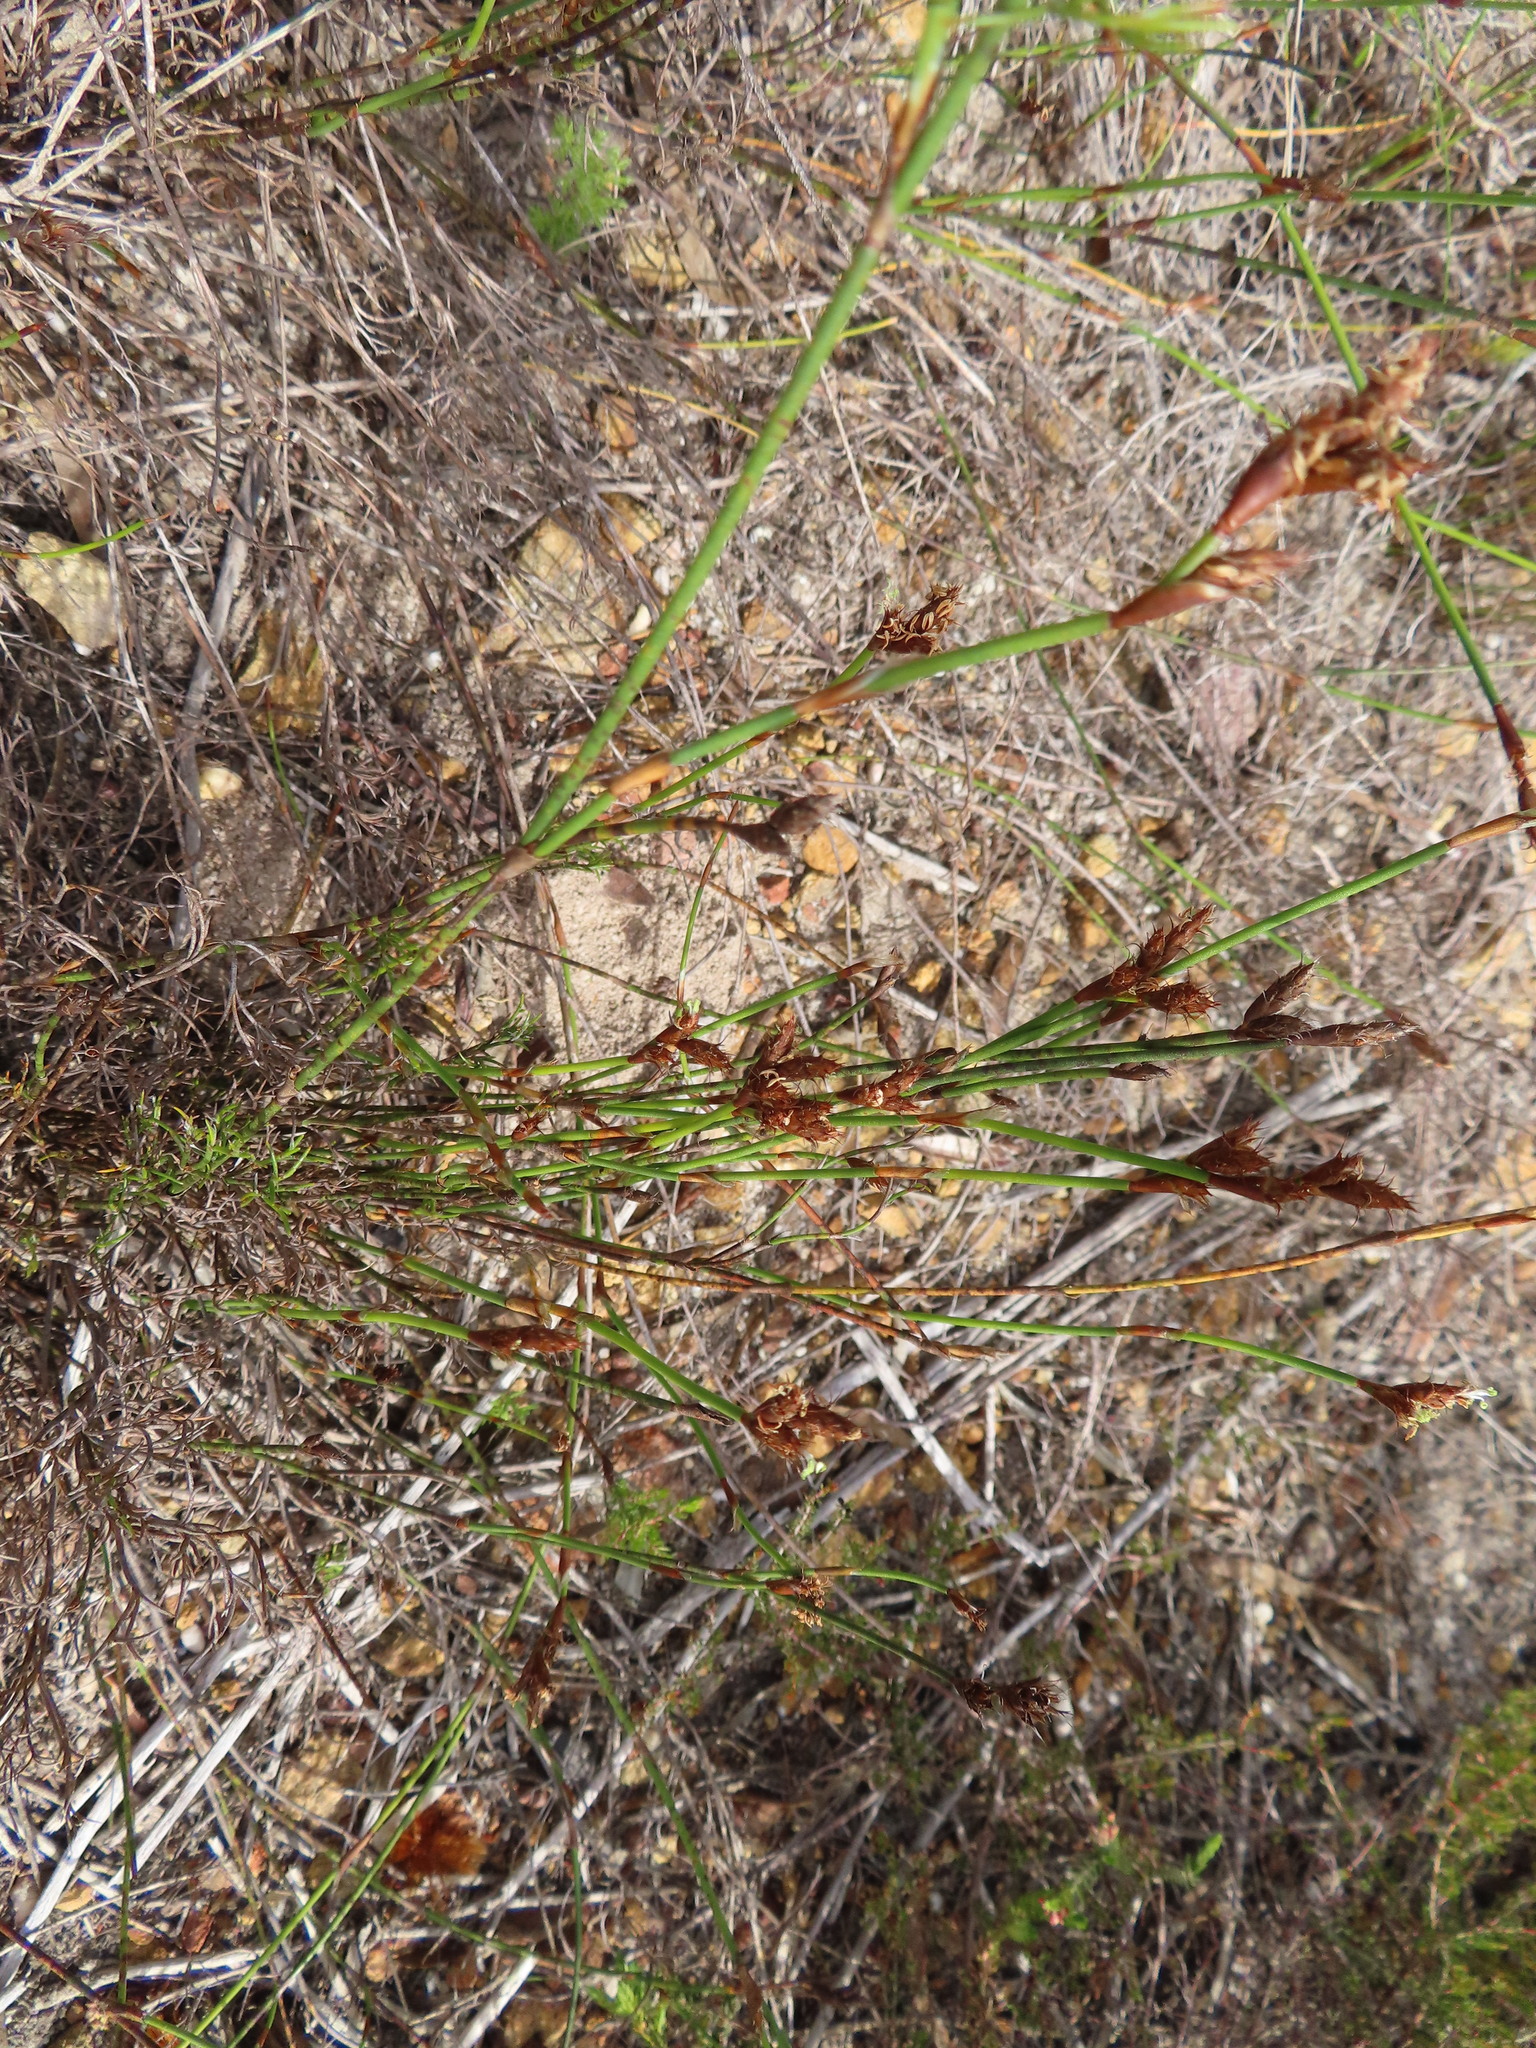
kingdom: Plantae
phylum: Tracheophyta
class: Liliopsida
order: Poales
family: Restionaceae
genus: Restio
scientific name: Restio capensis
